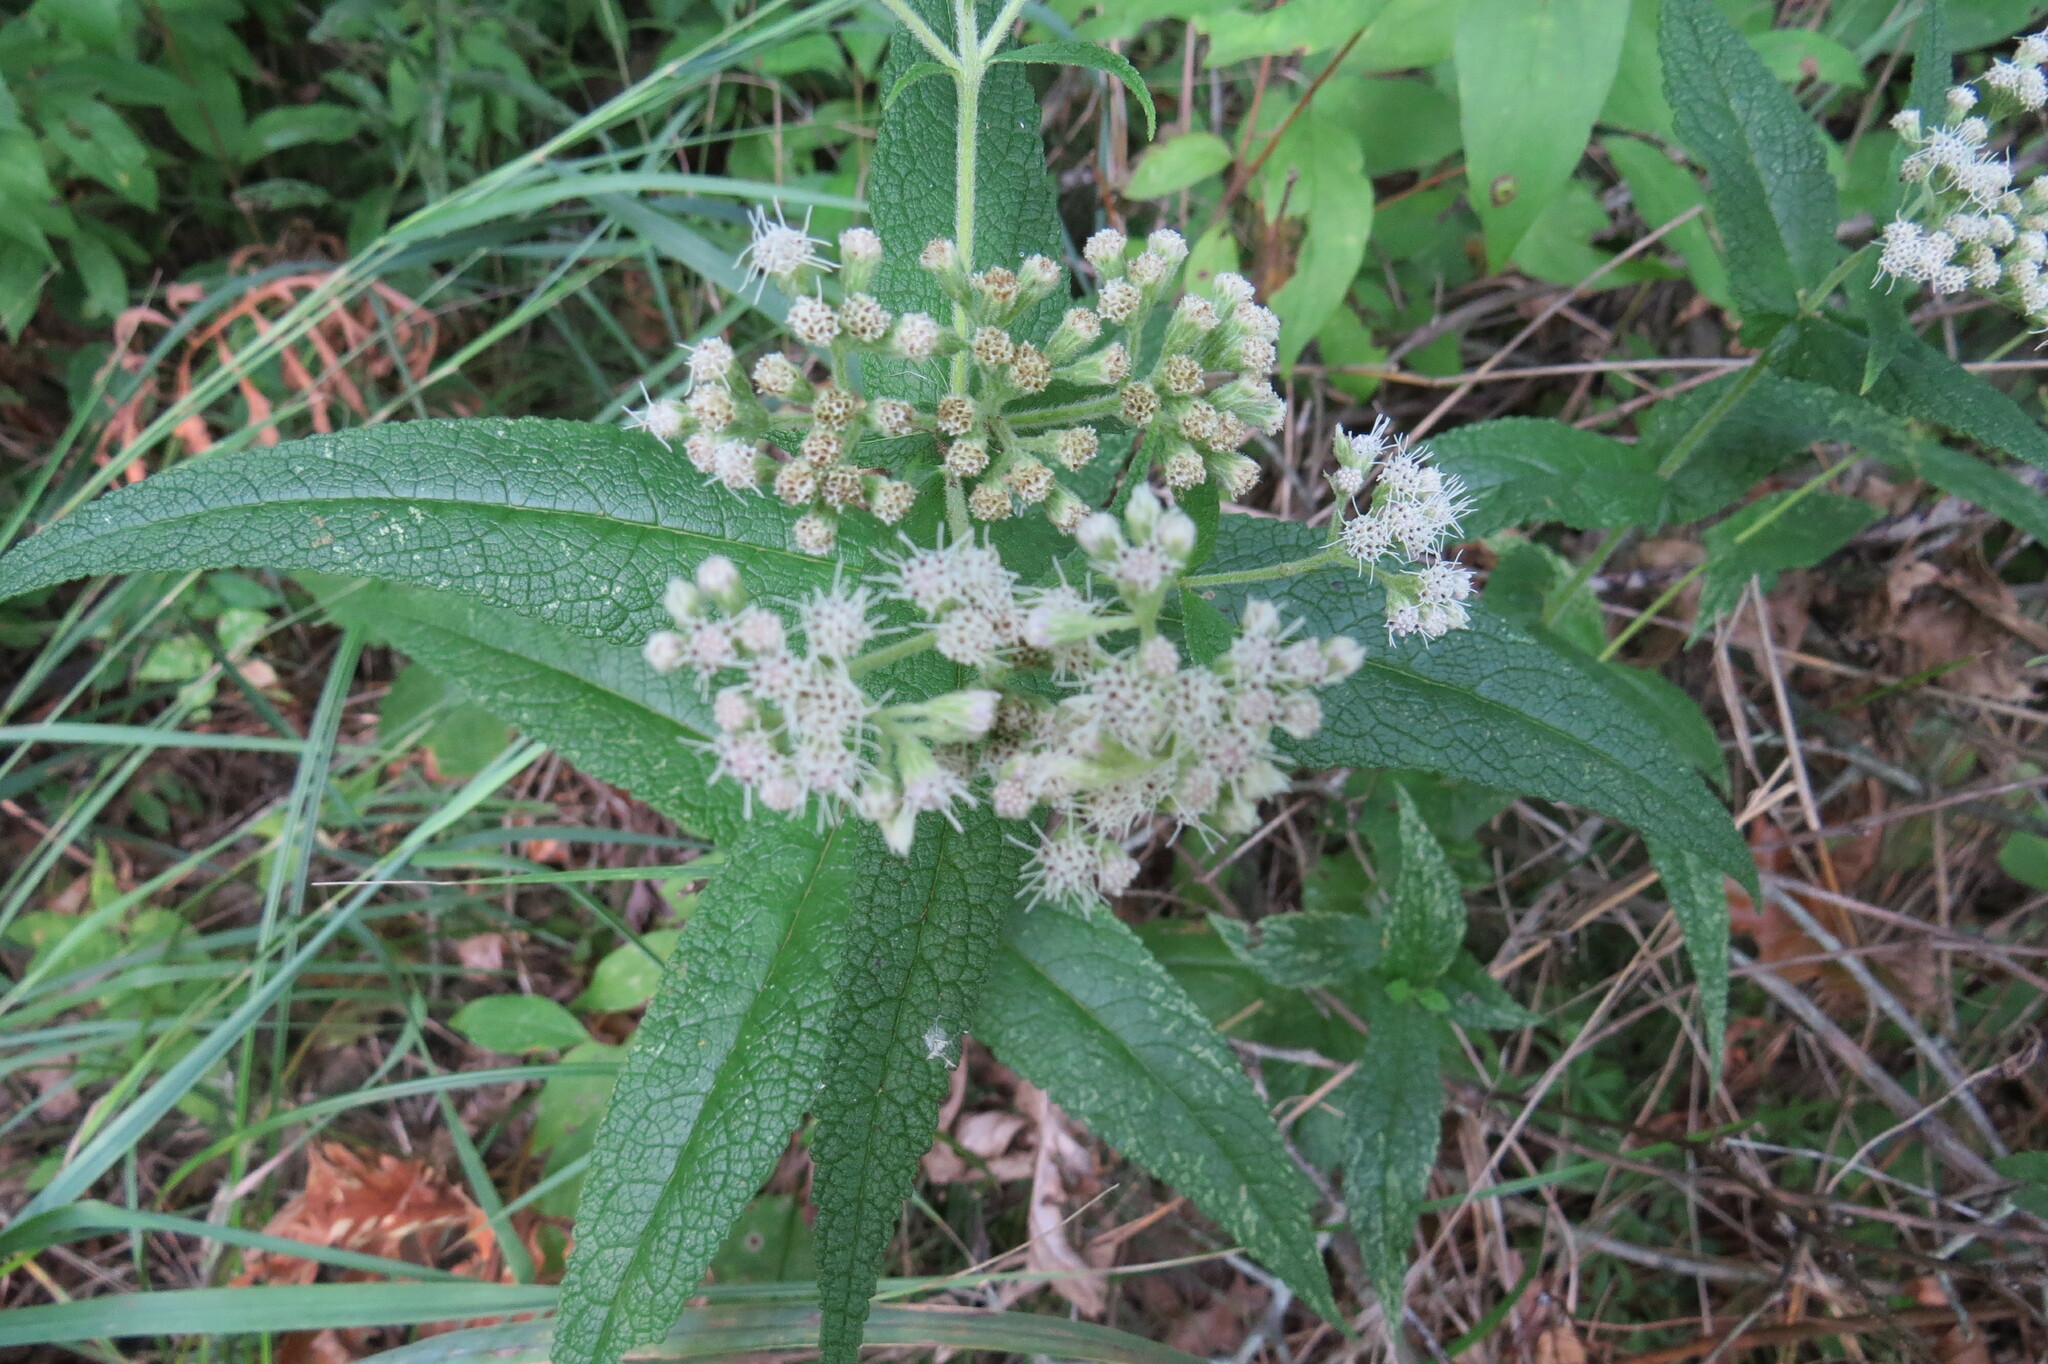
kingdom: Plantae
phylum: Tracheophyta
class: Magnoliopsida
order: Asterales
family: Asteraceae
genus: Eupatorium
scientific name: Eupatorium perfoliatum
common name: Boneset
